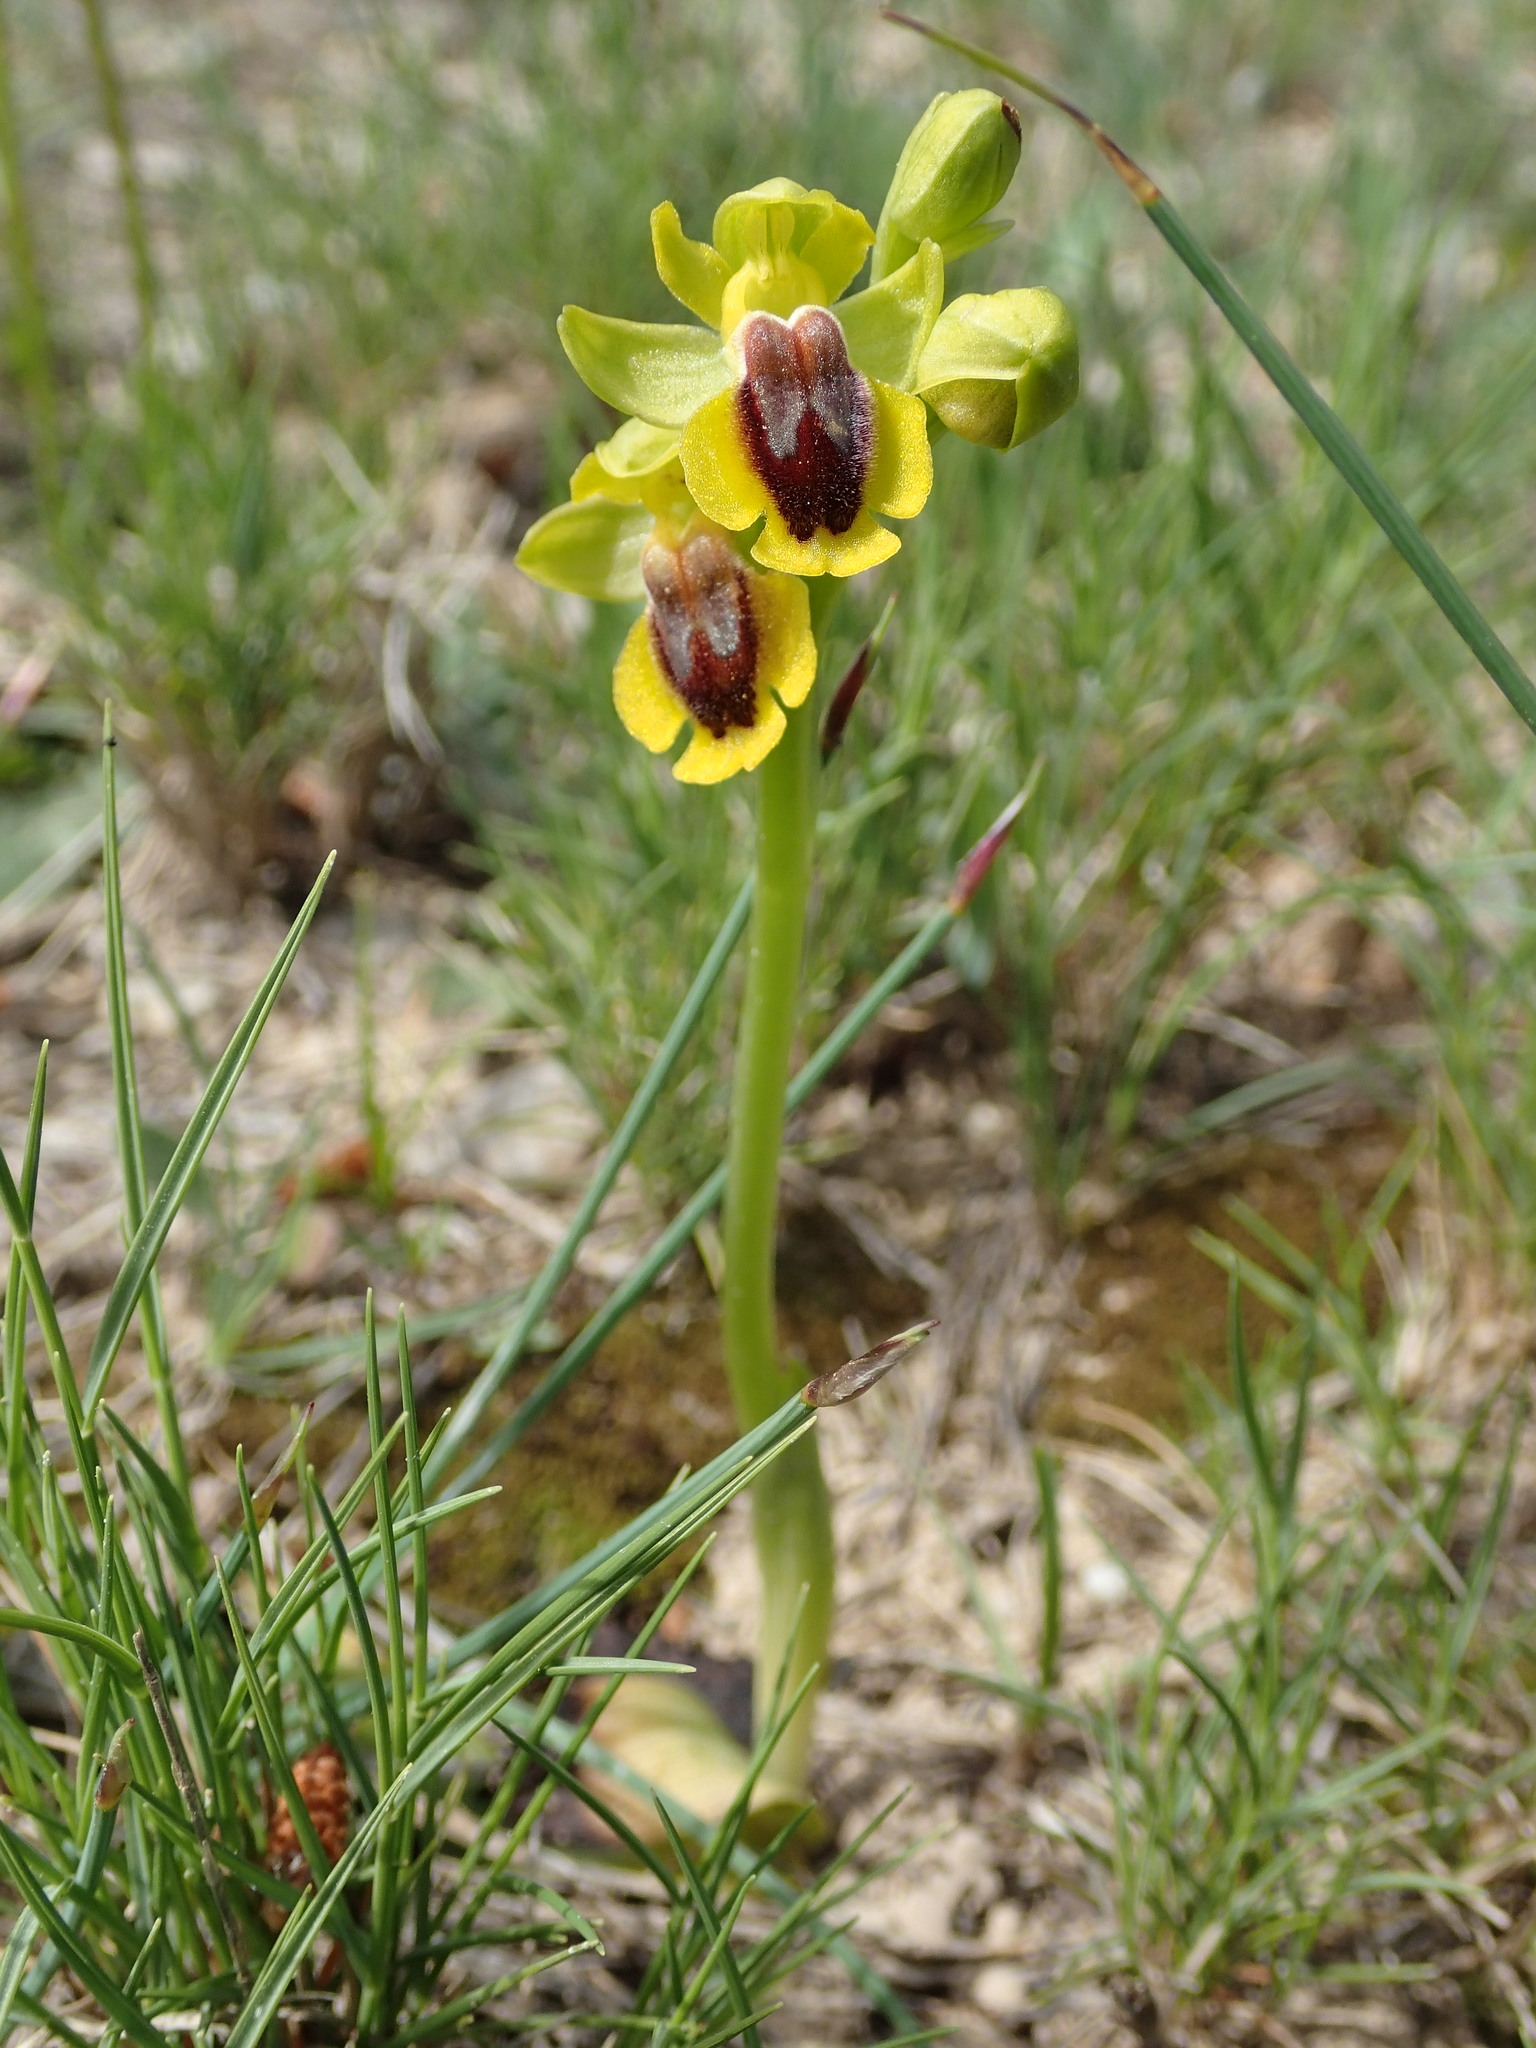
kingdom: Plantae
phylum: Tracheophyta
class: Liliopsida
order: Asparagales
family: Orchidaceae
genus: Ophrys
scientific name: Ophrys lutea
